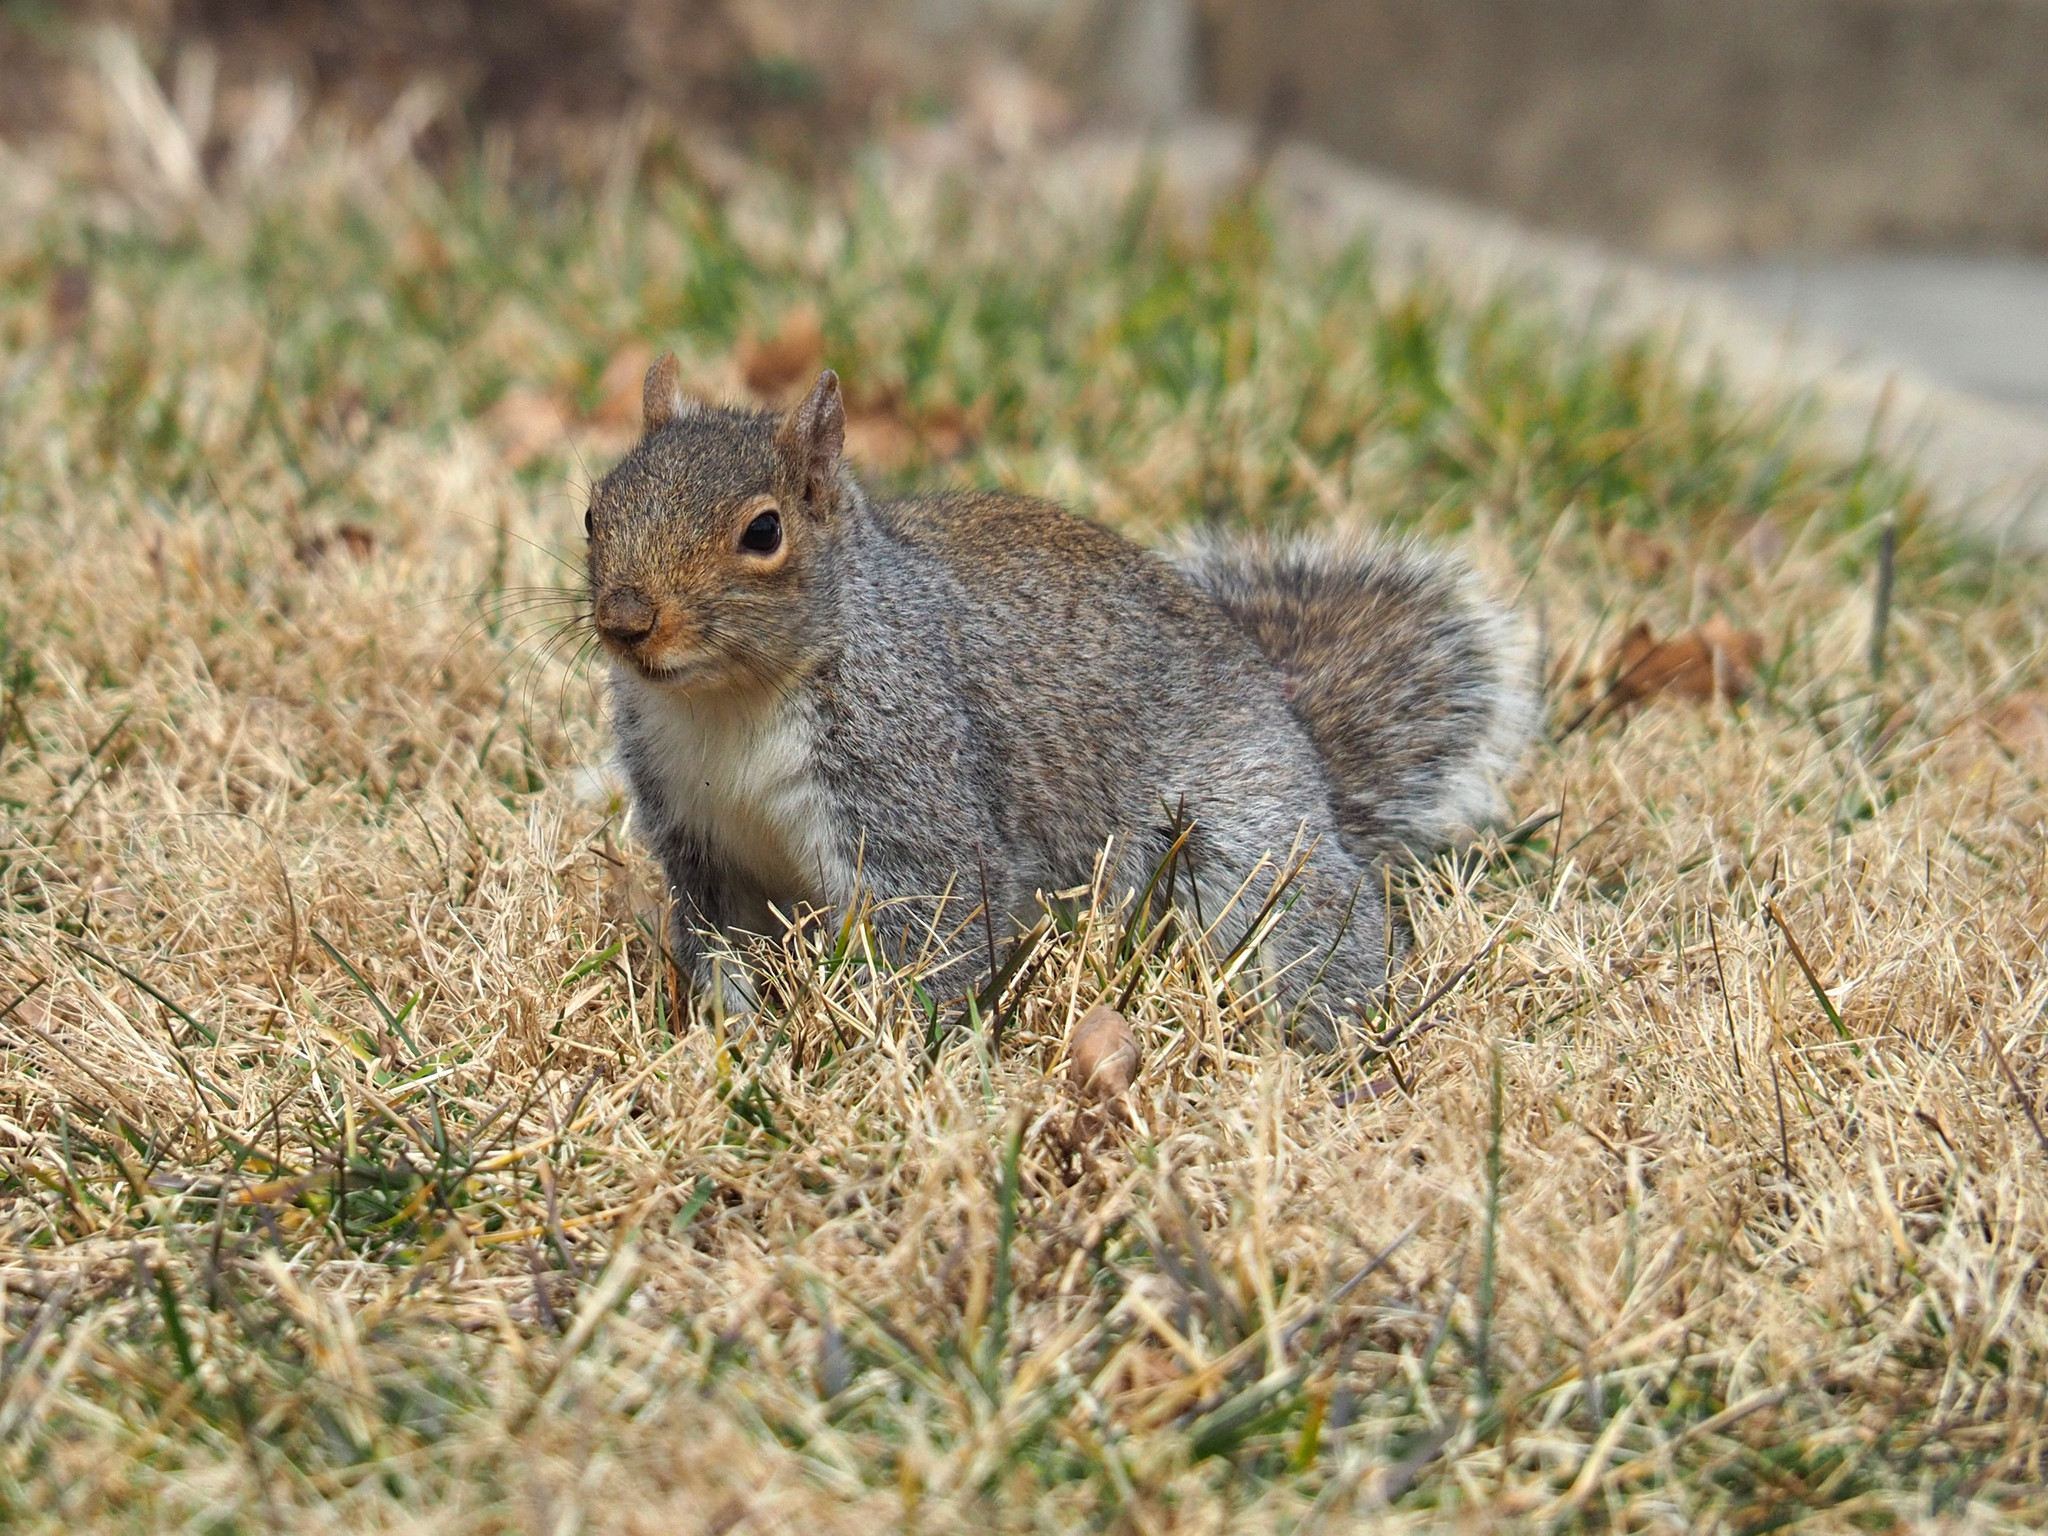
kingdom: Animalia
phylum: Chordata
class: Mammalia
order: Rodentia
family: Sciuridae
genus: Sciurus
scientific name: Sciurus carolinensis
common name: Eastern gray squirrel
